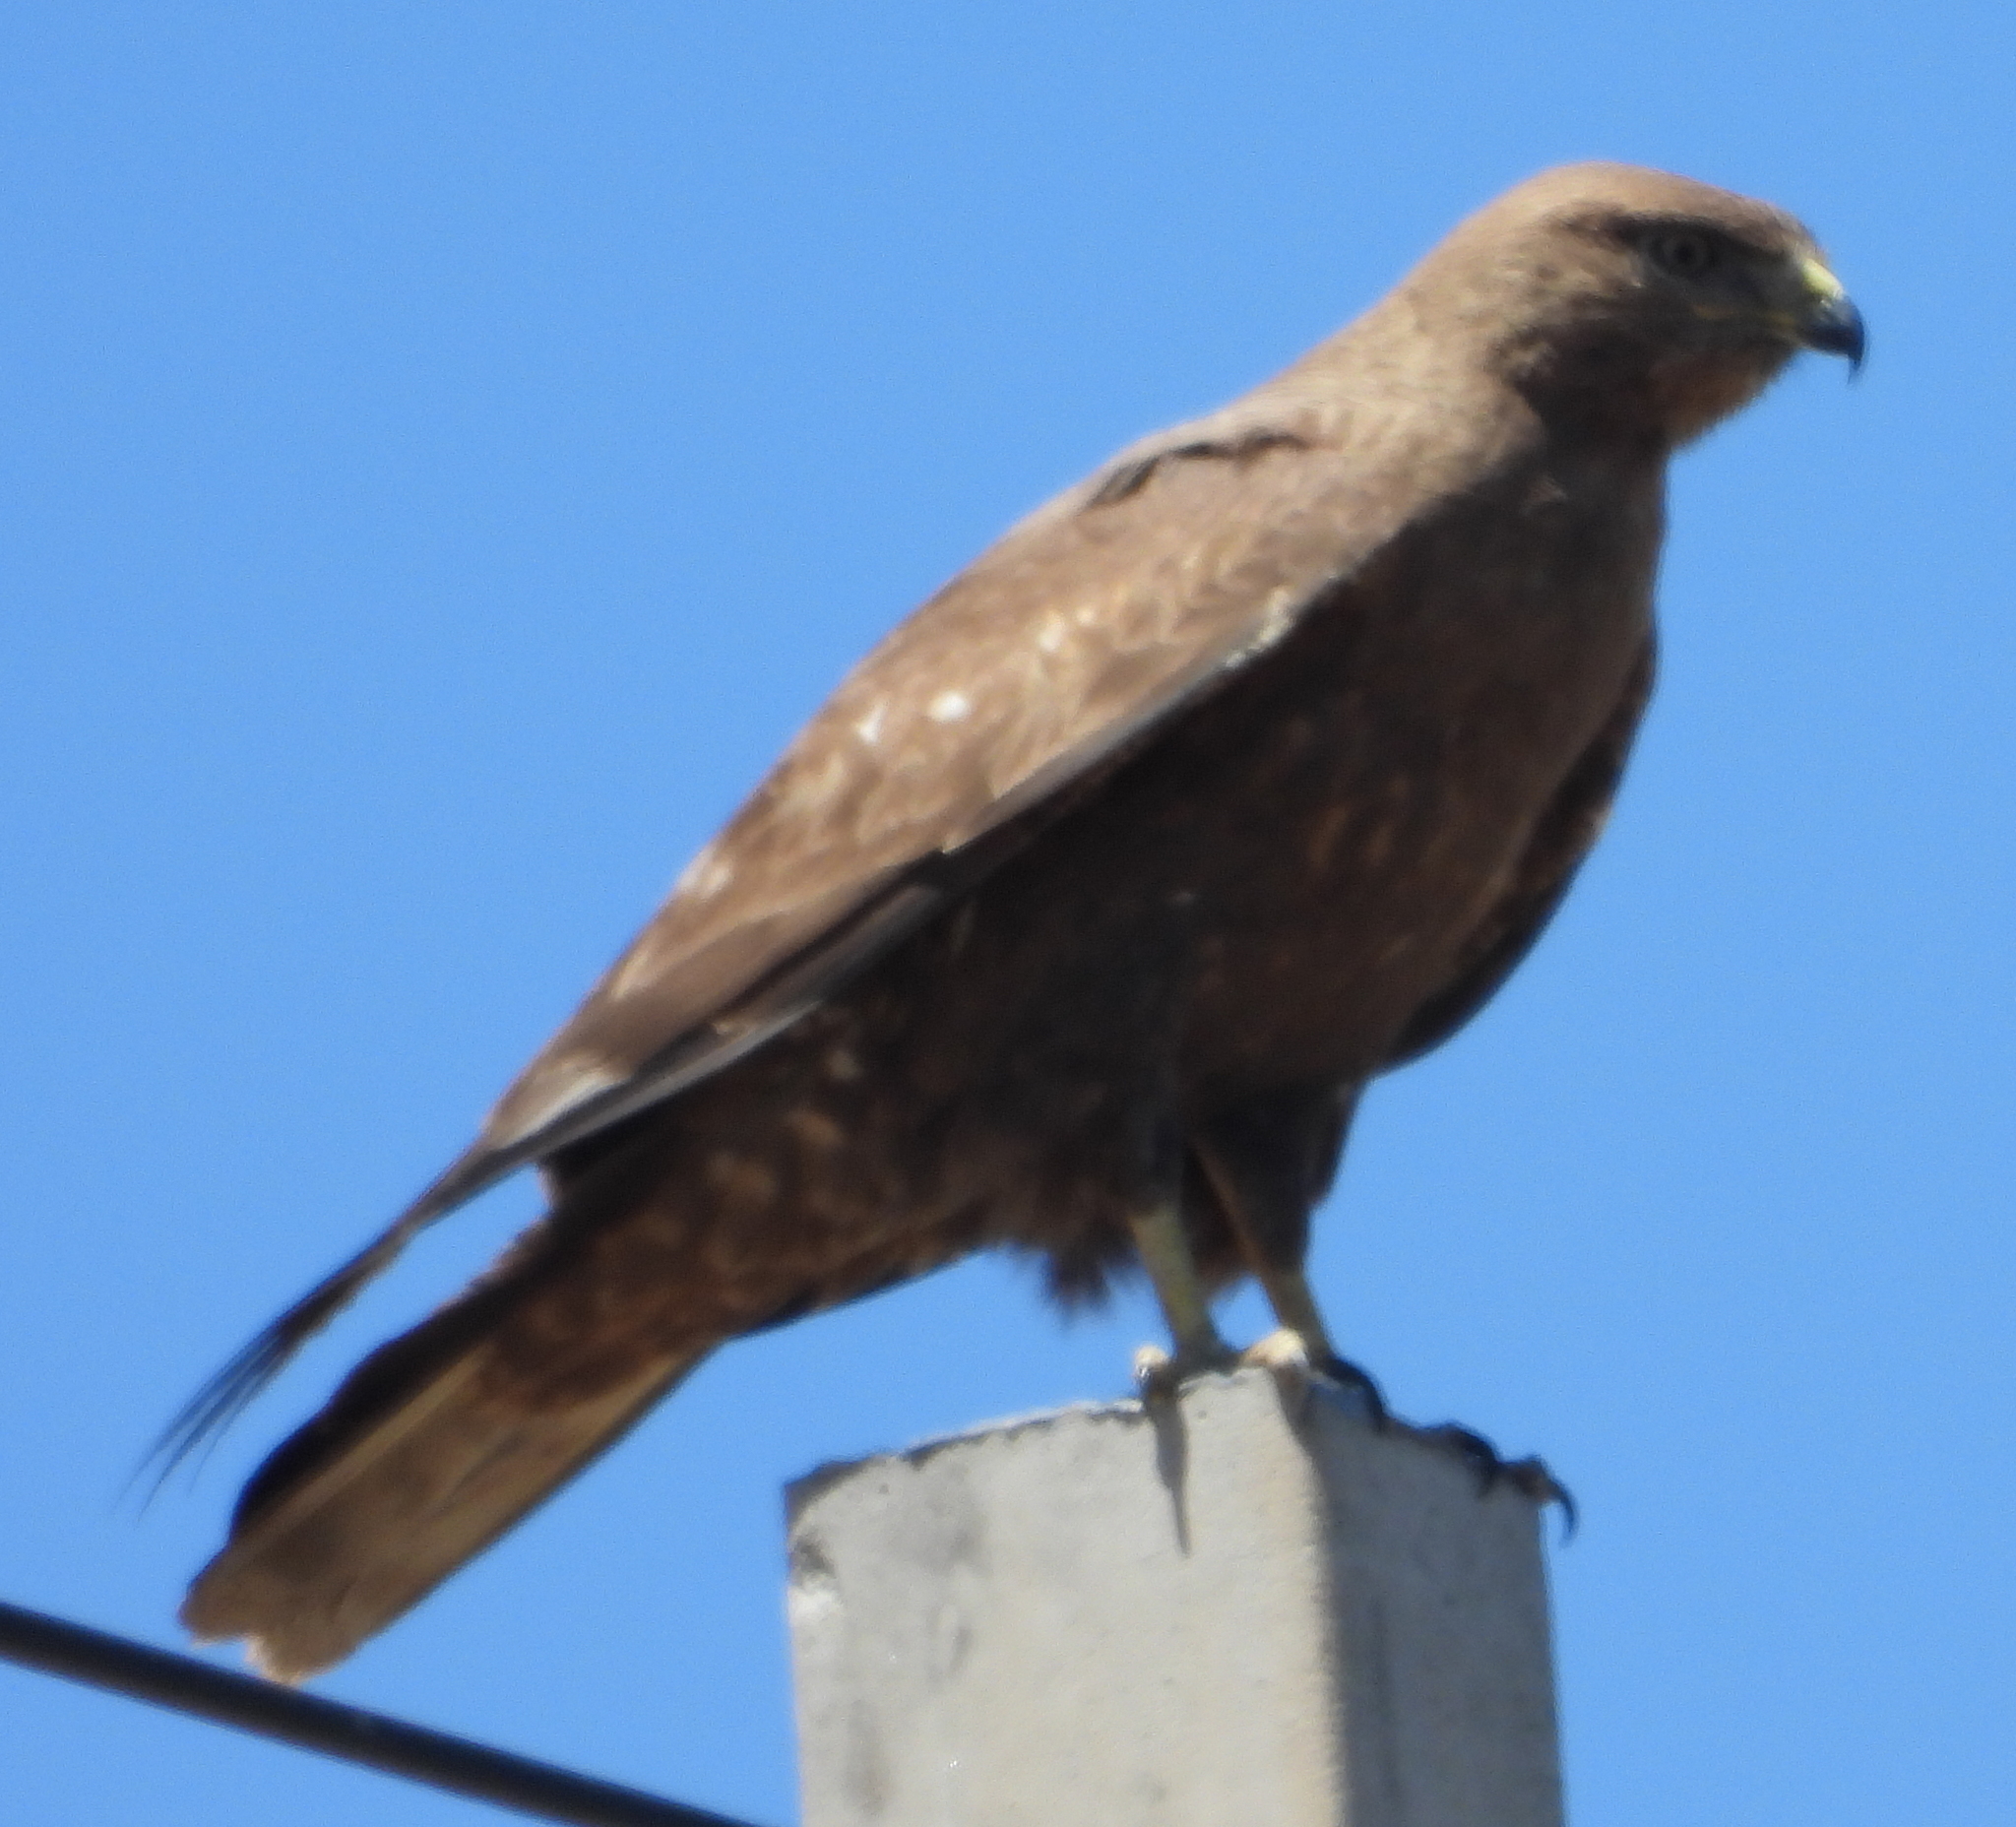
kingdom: Animalia
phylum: Chordata
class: Aves
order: Accipitriformes
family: Accipitridae
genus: Buteo
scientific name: Buteo buteo
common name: Common buzzard
